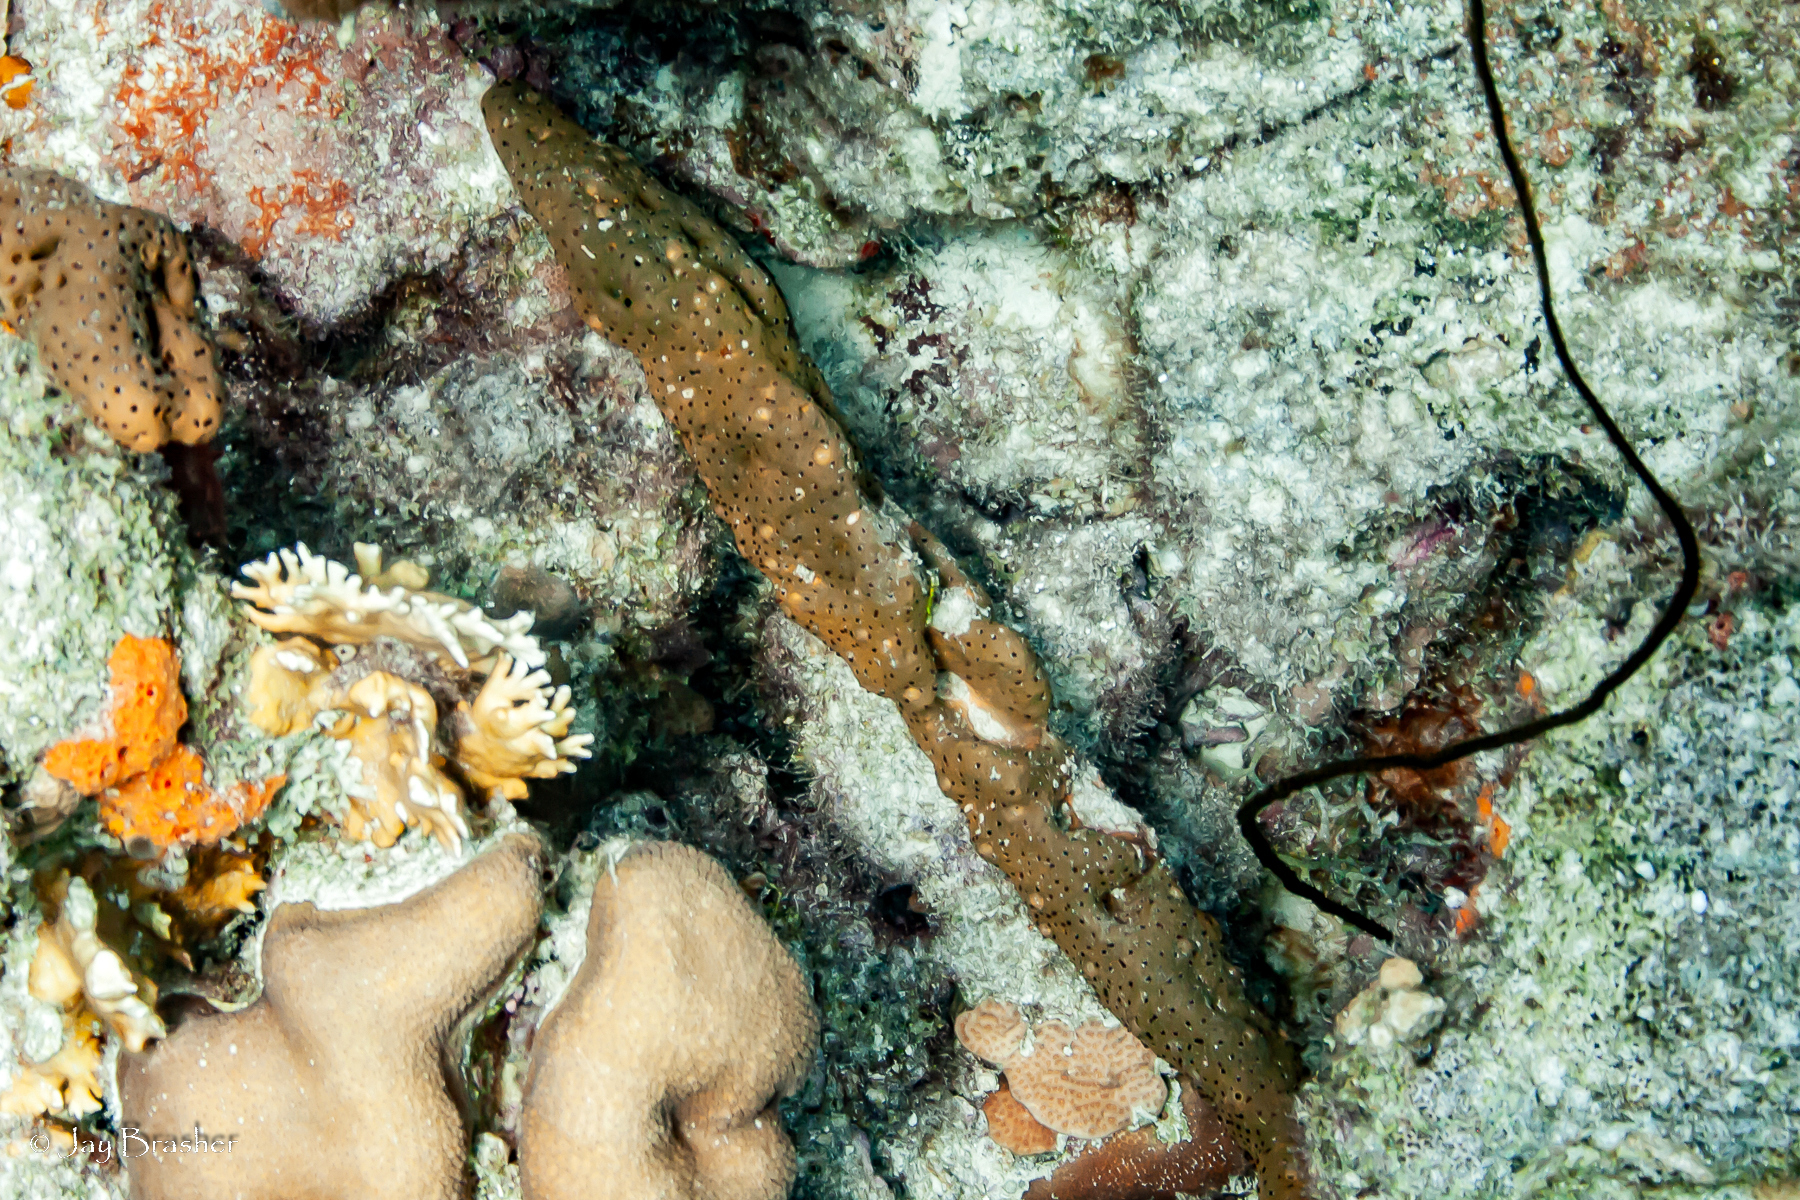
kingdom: Animalia
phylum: Cnidaria
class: Hydrozoa
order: Anthoathecata
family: Milleporidae
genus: Millepora
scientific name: Millepora alcicornis
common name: Branching fire coral
